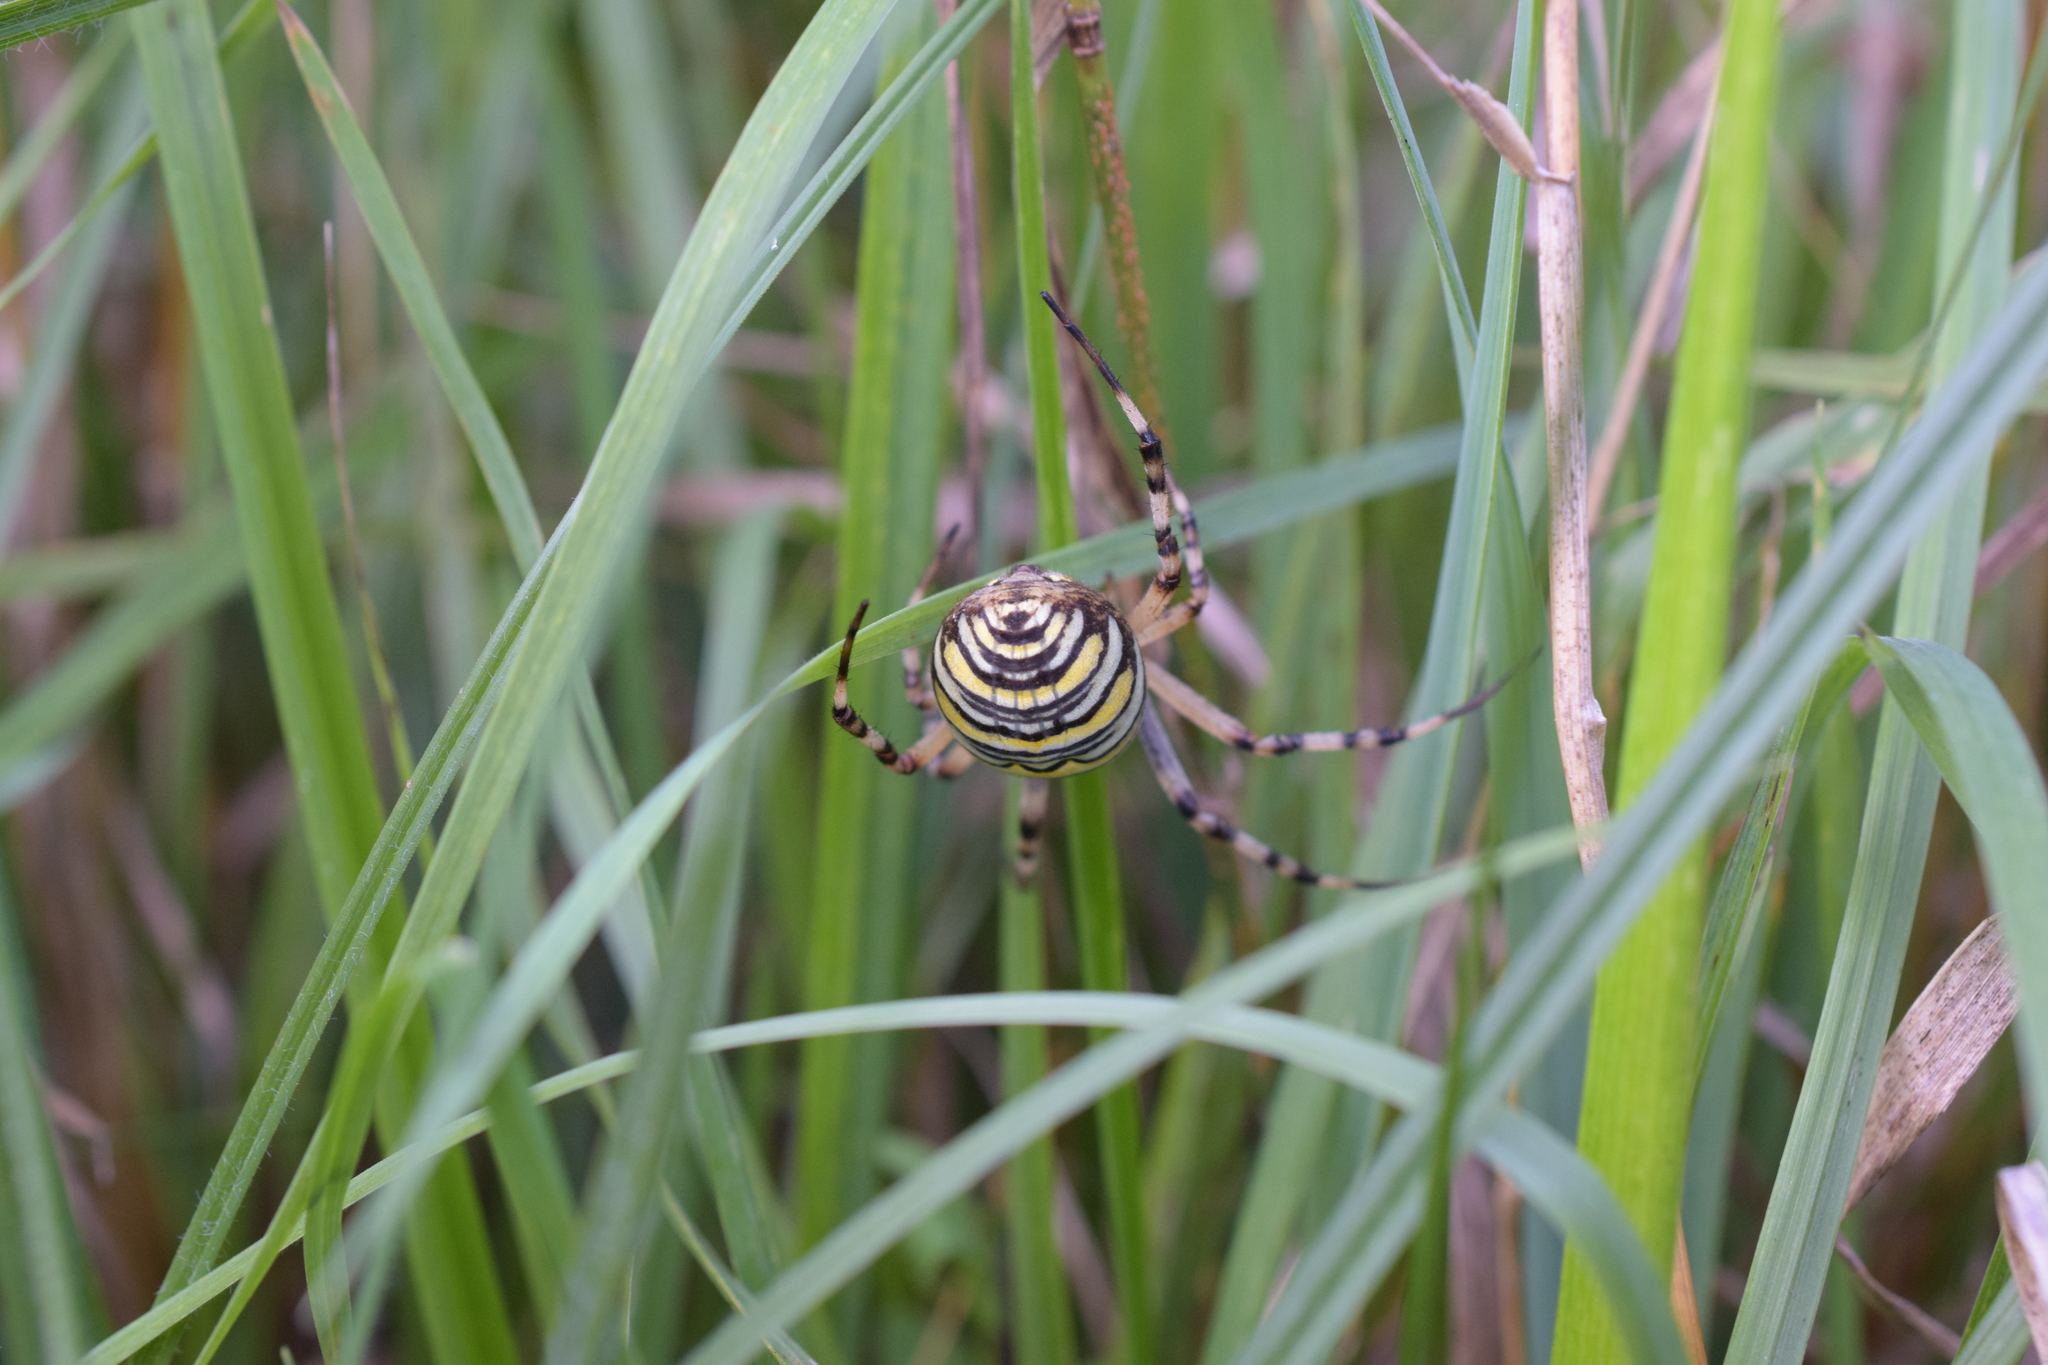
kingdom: Animalia
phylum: Arthropoda
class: Arachnida
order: Araneae
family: Araneidae
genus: Argiope
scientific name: Argiope bruennichi
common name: Wasp spider
